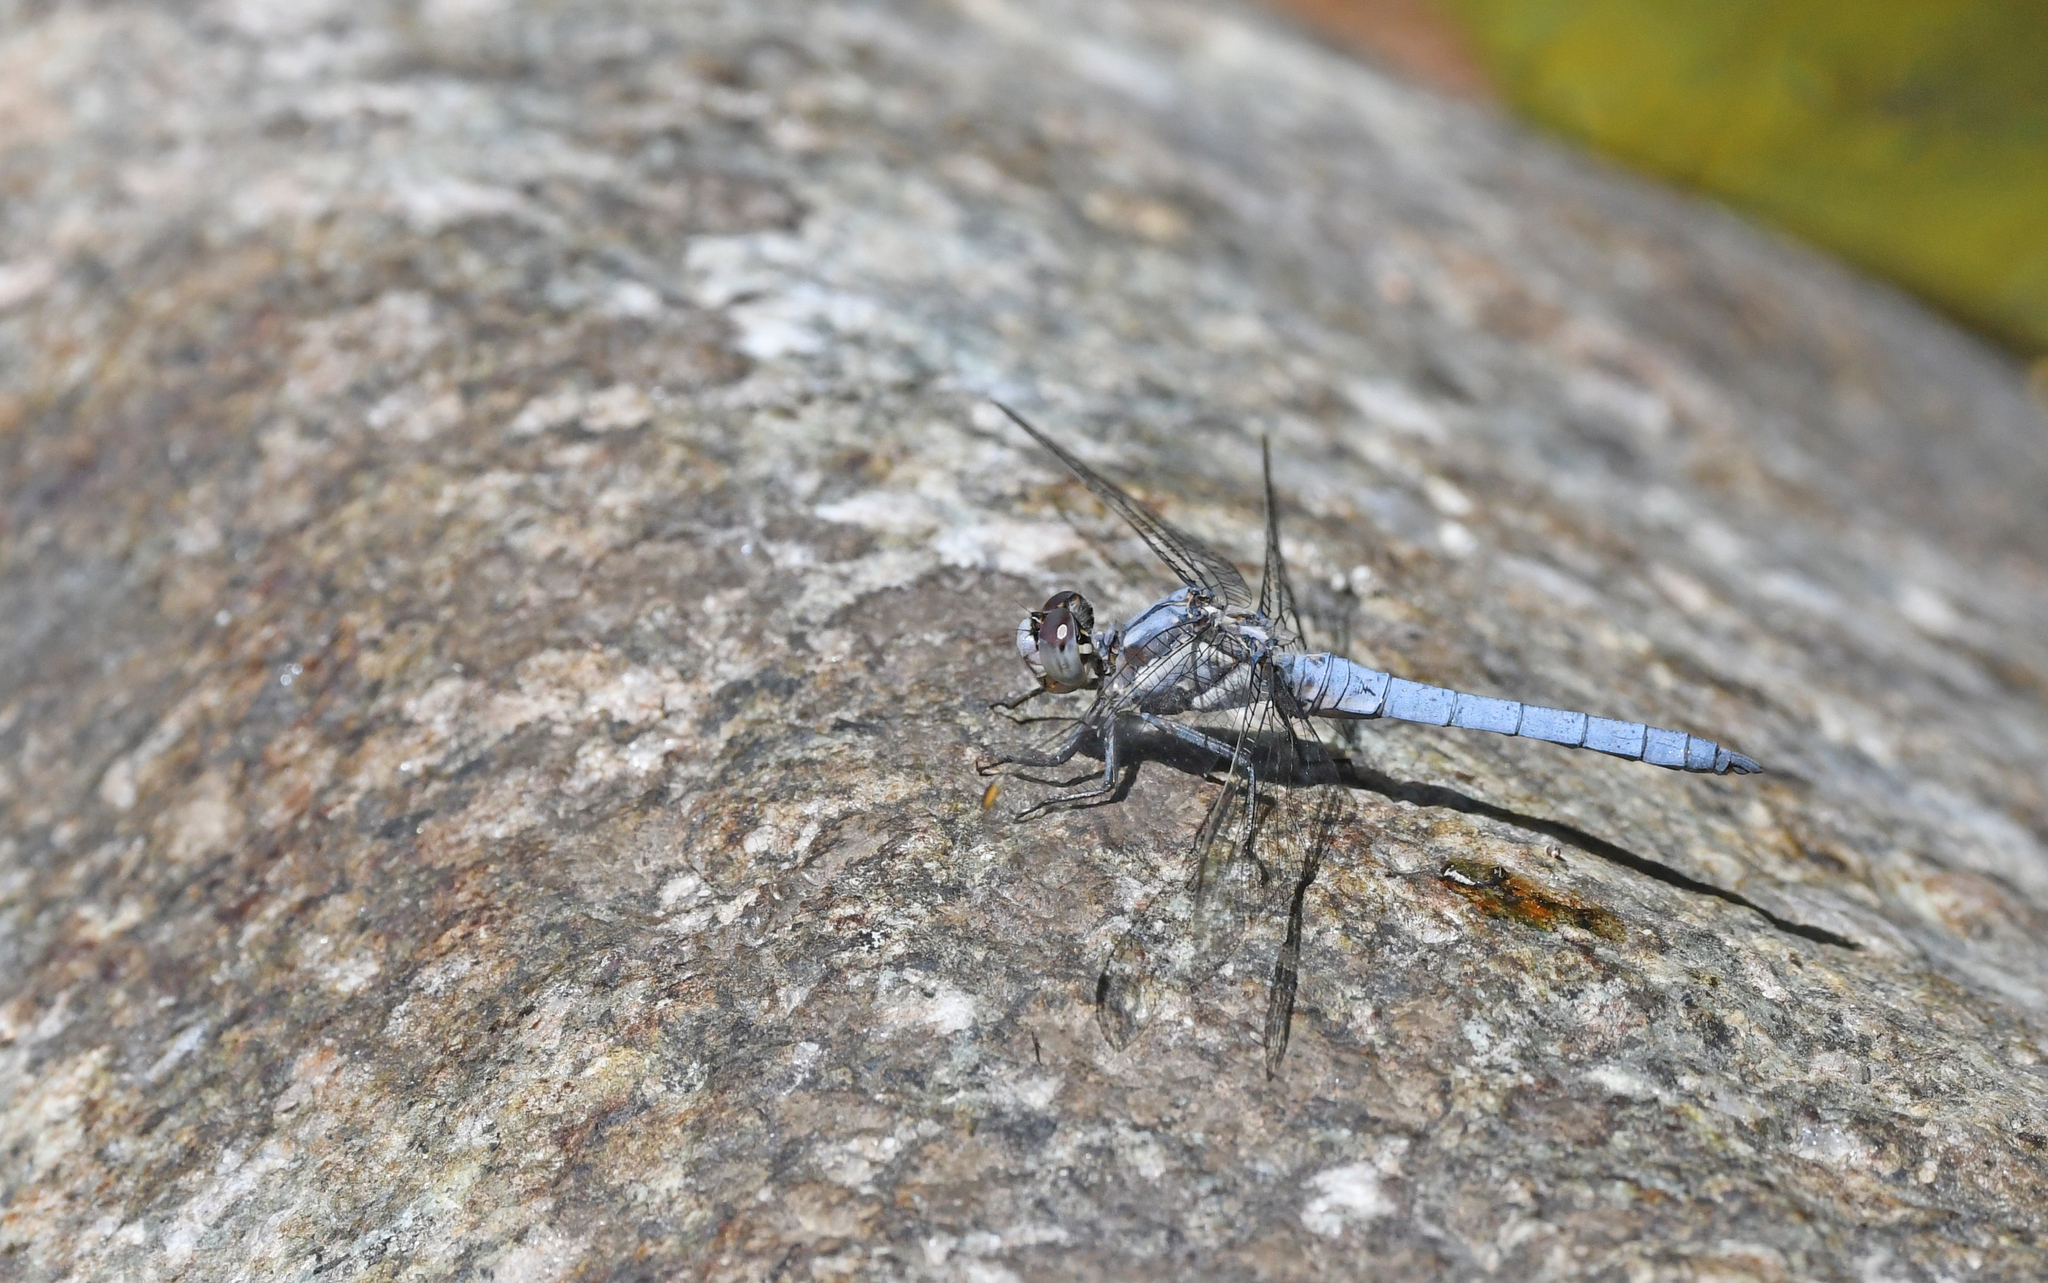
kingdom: Animalia
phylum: Arthropoda
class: Insecta
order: Odonata
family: Libellulidae
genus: Orthetrum
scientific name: Orthetrum brunneum
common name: Southern skimmer
